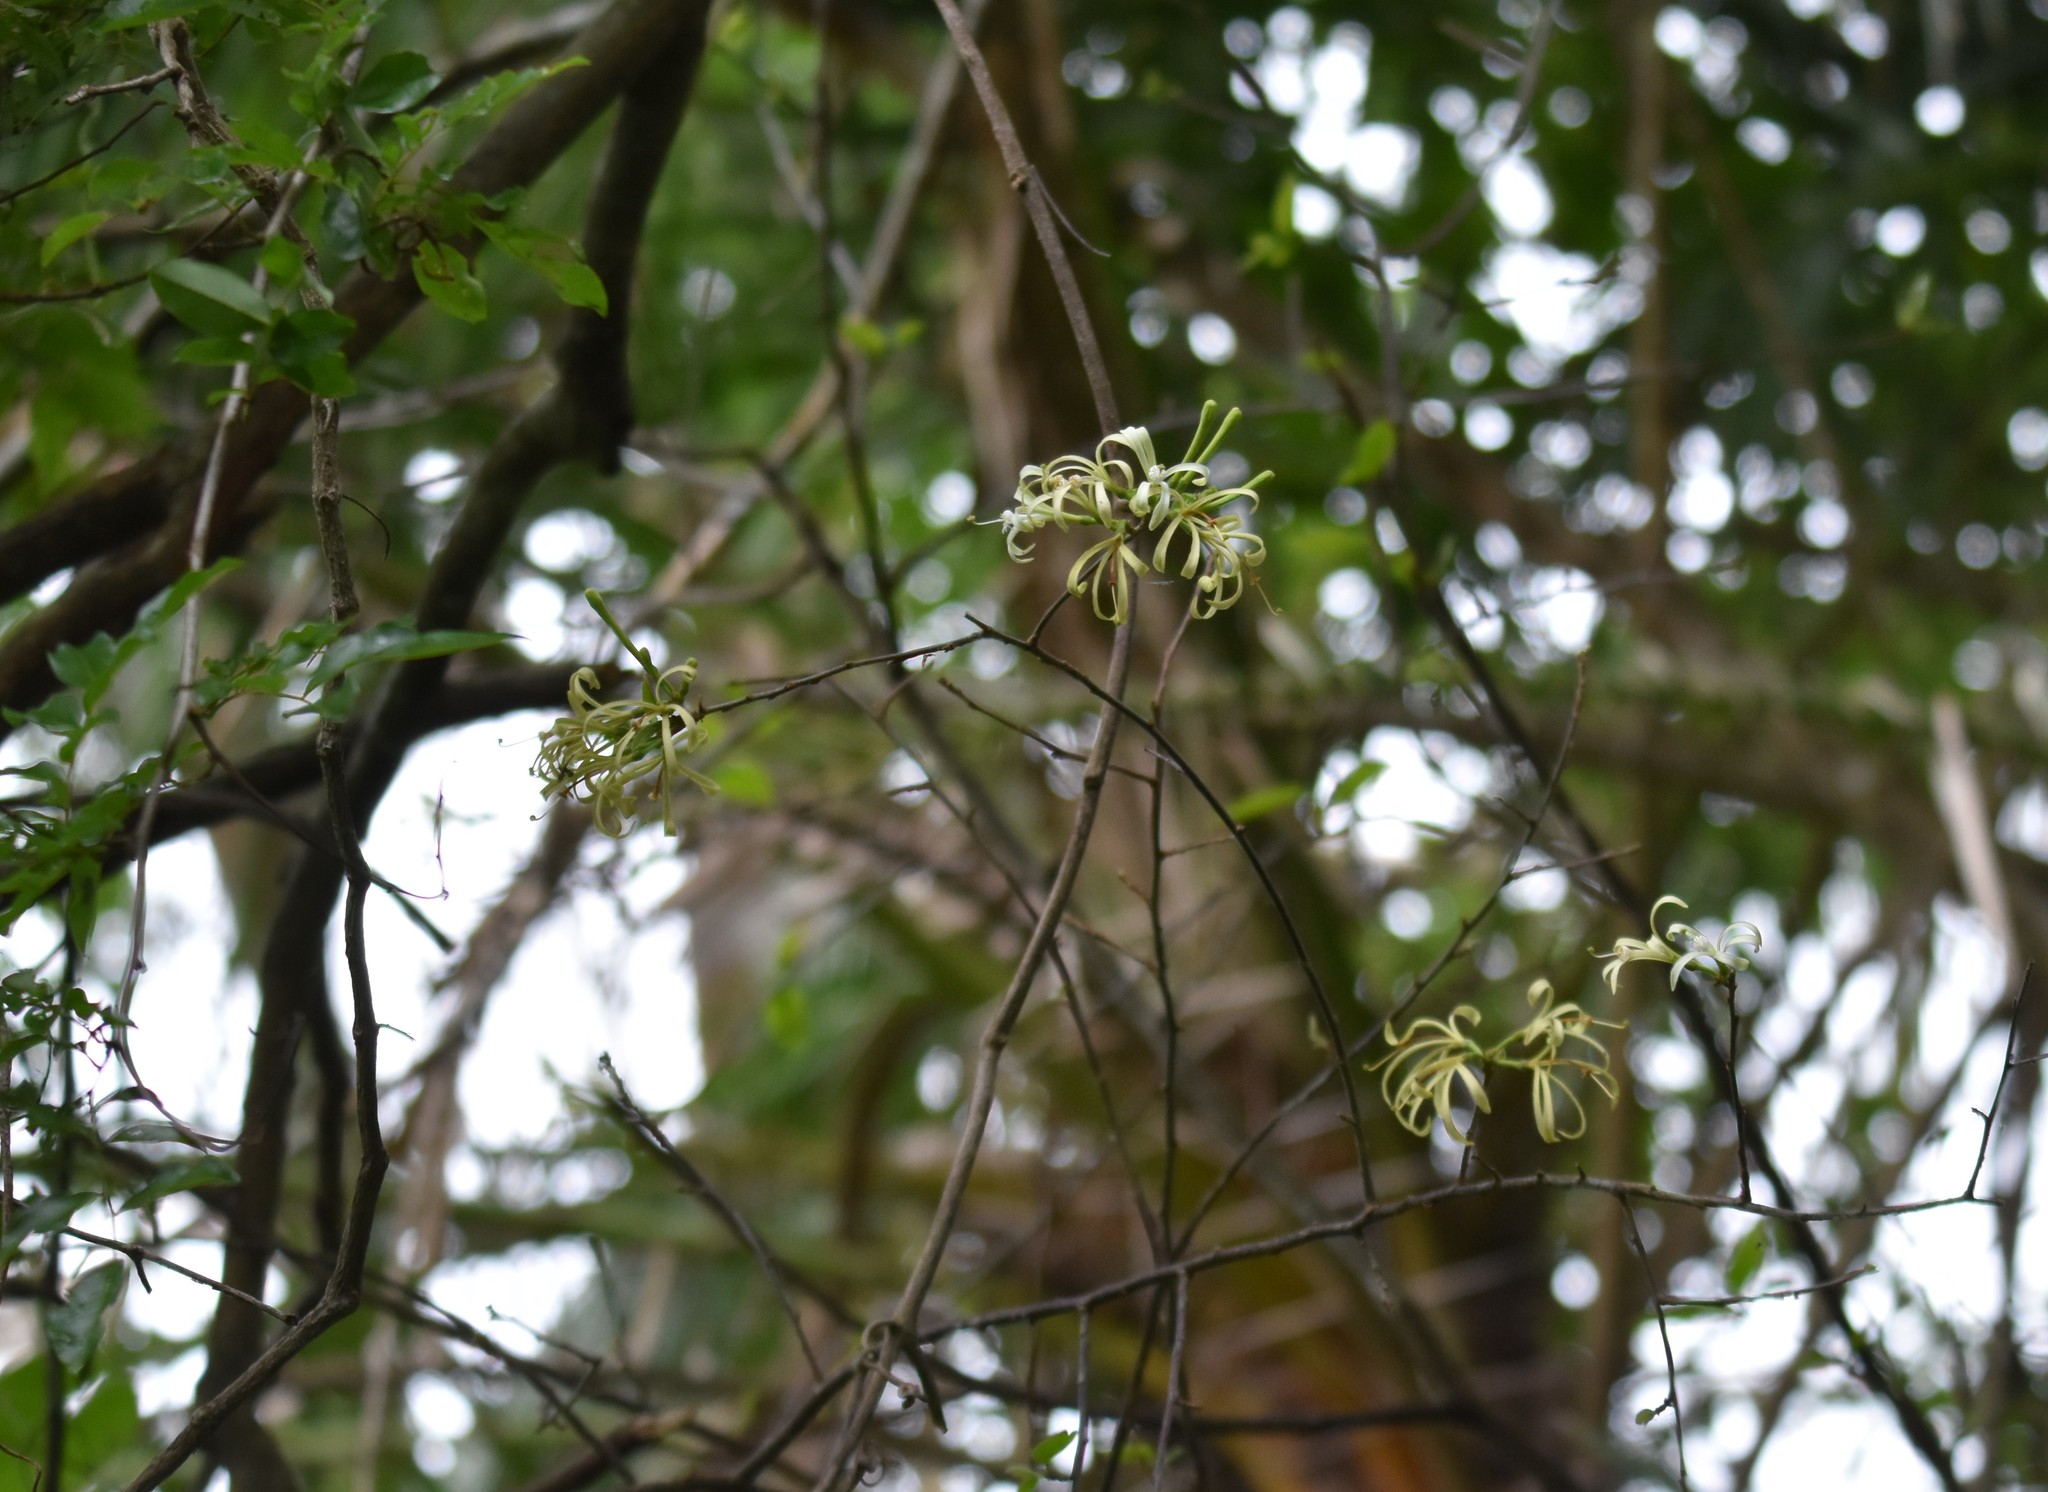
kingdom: Plantae
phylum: Tracheophyta
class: Magnoliopsida
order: Sapindales
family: Meliaceae
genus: Turraea
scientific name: Turraea floribunda
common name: Honeysuckle tree
